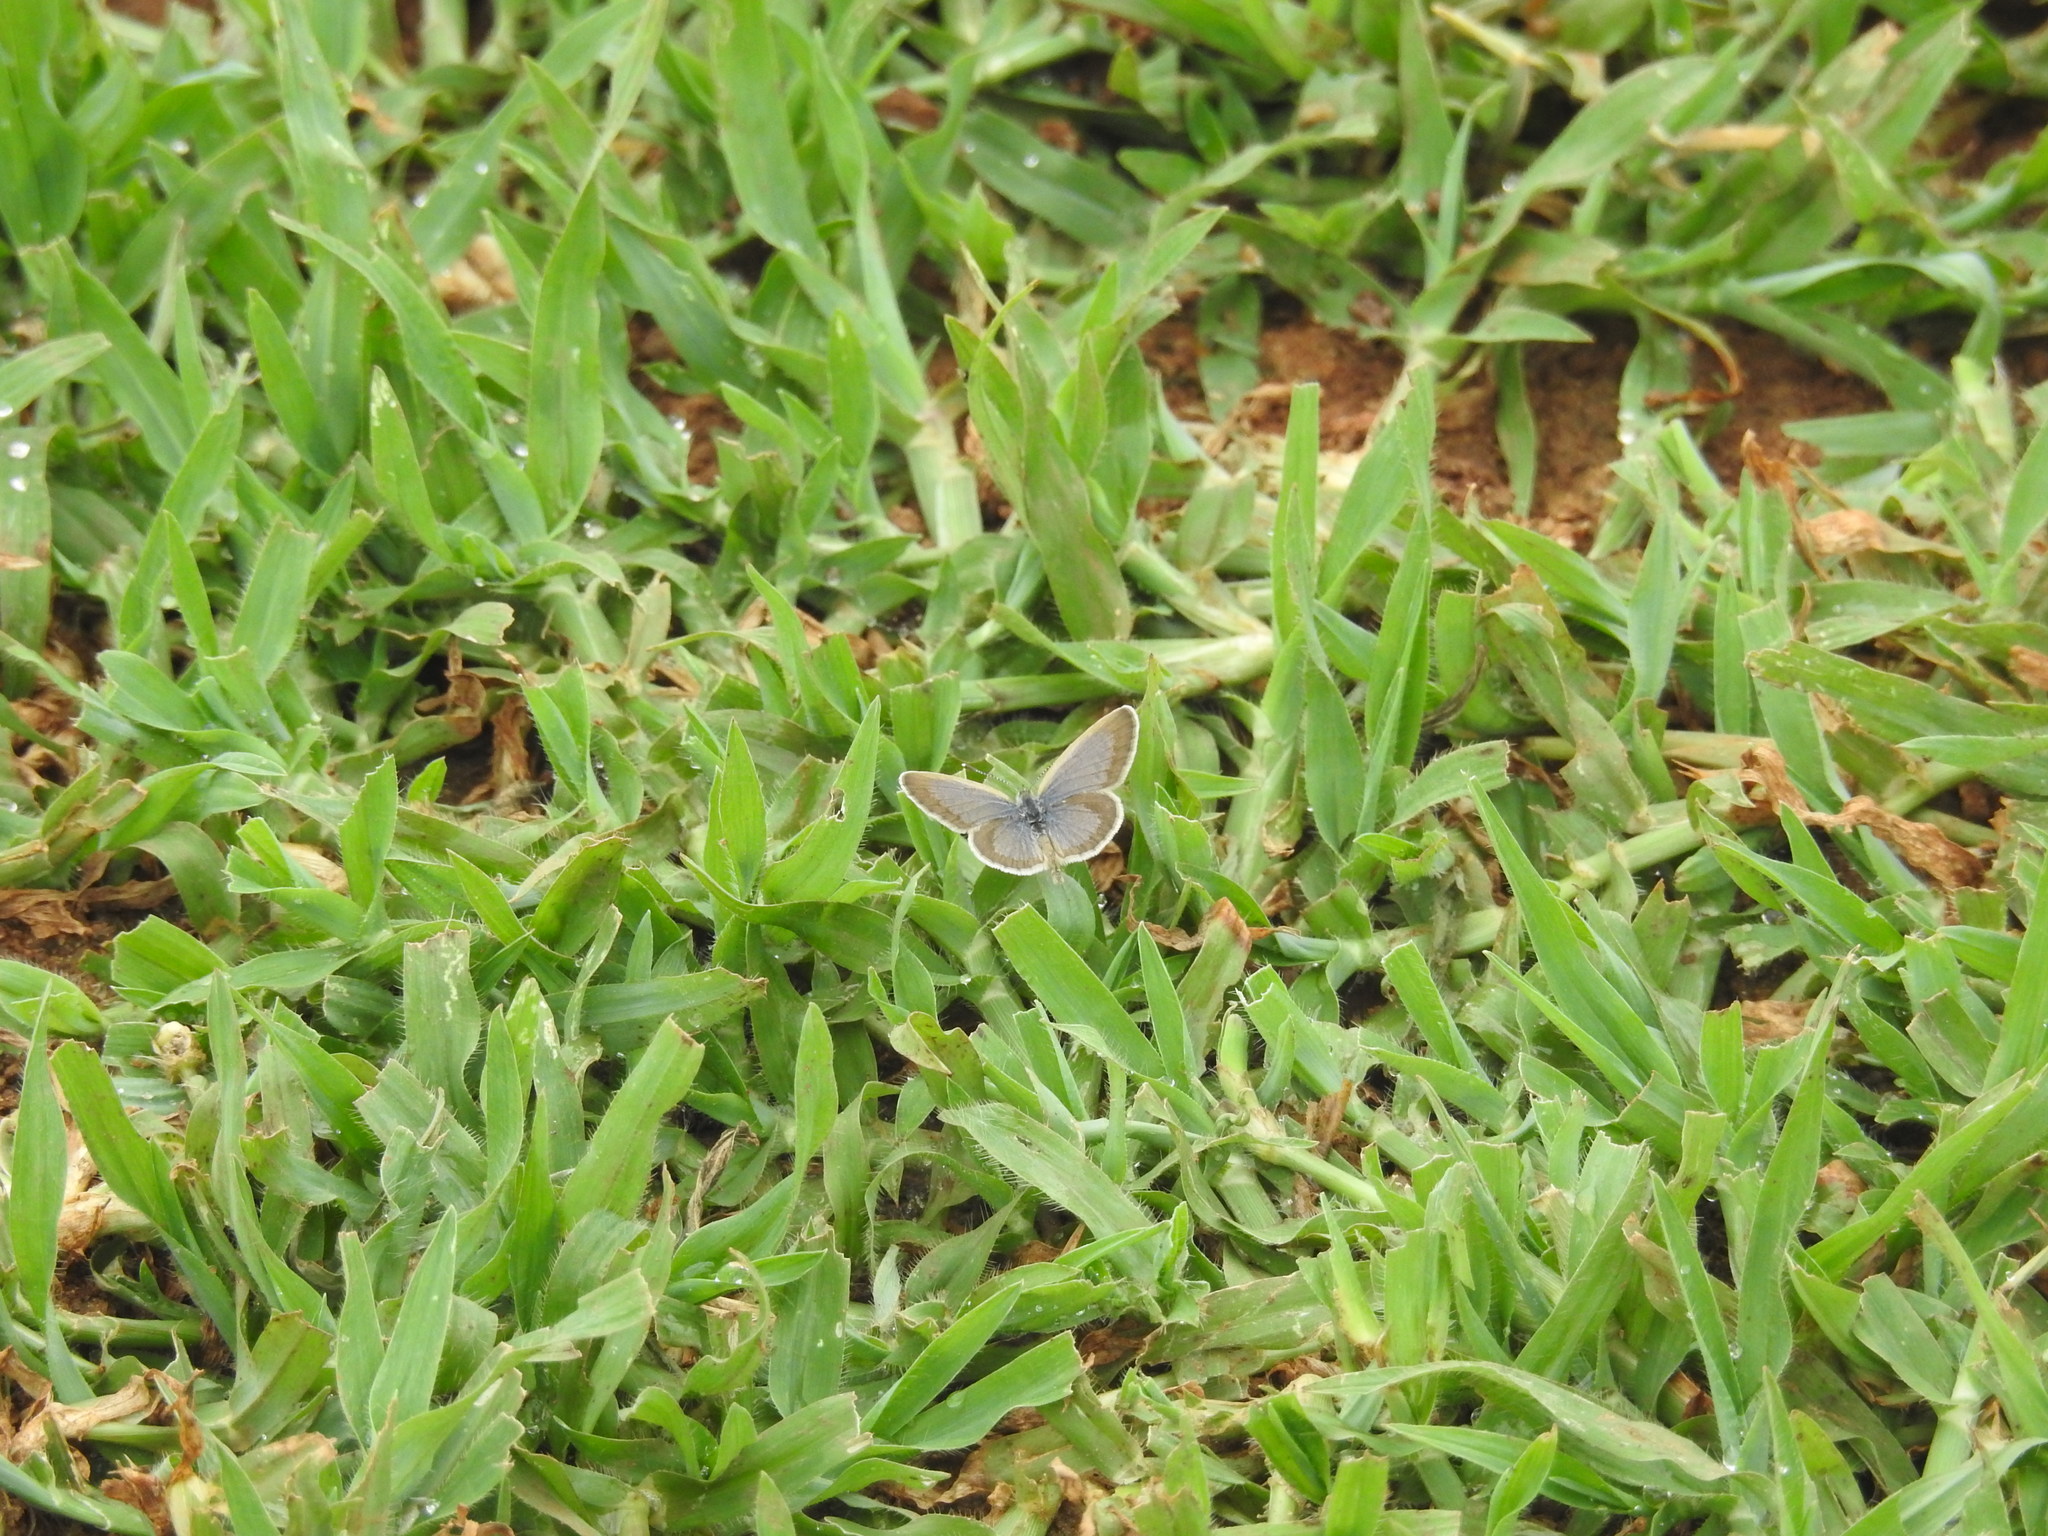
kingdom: Animalia
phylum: Arthropoda
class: Insecta
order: Lepidoptera
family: Lycaenidae
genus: Zizina
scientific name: Zizina otis
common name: Lesser grass blue
